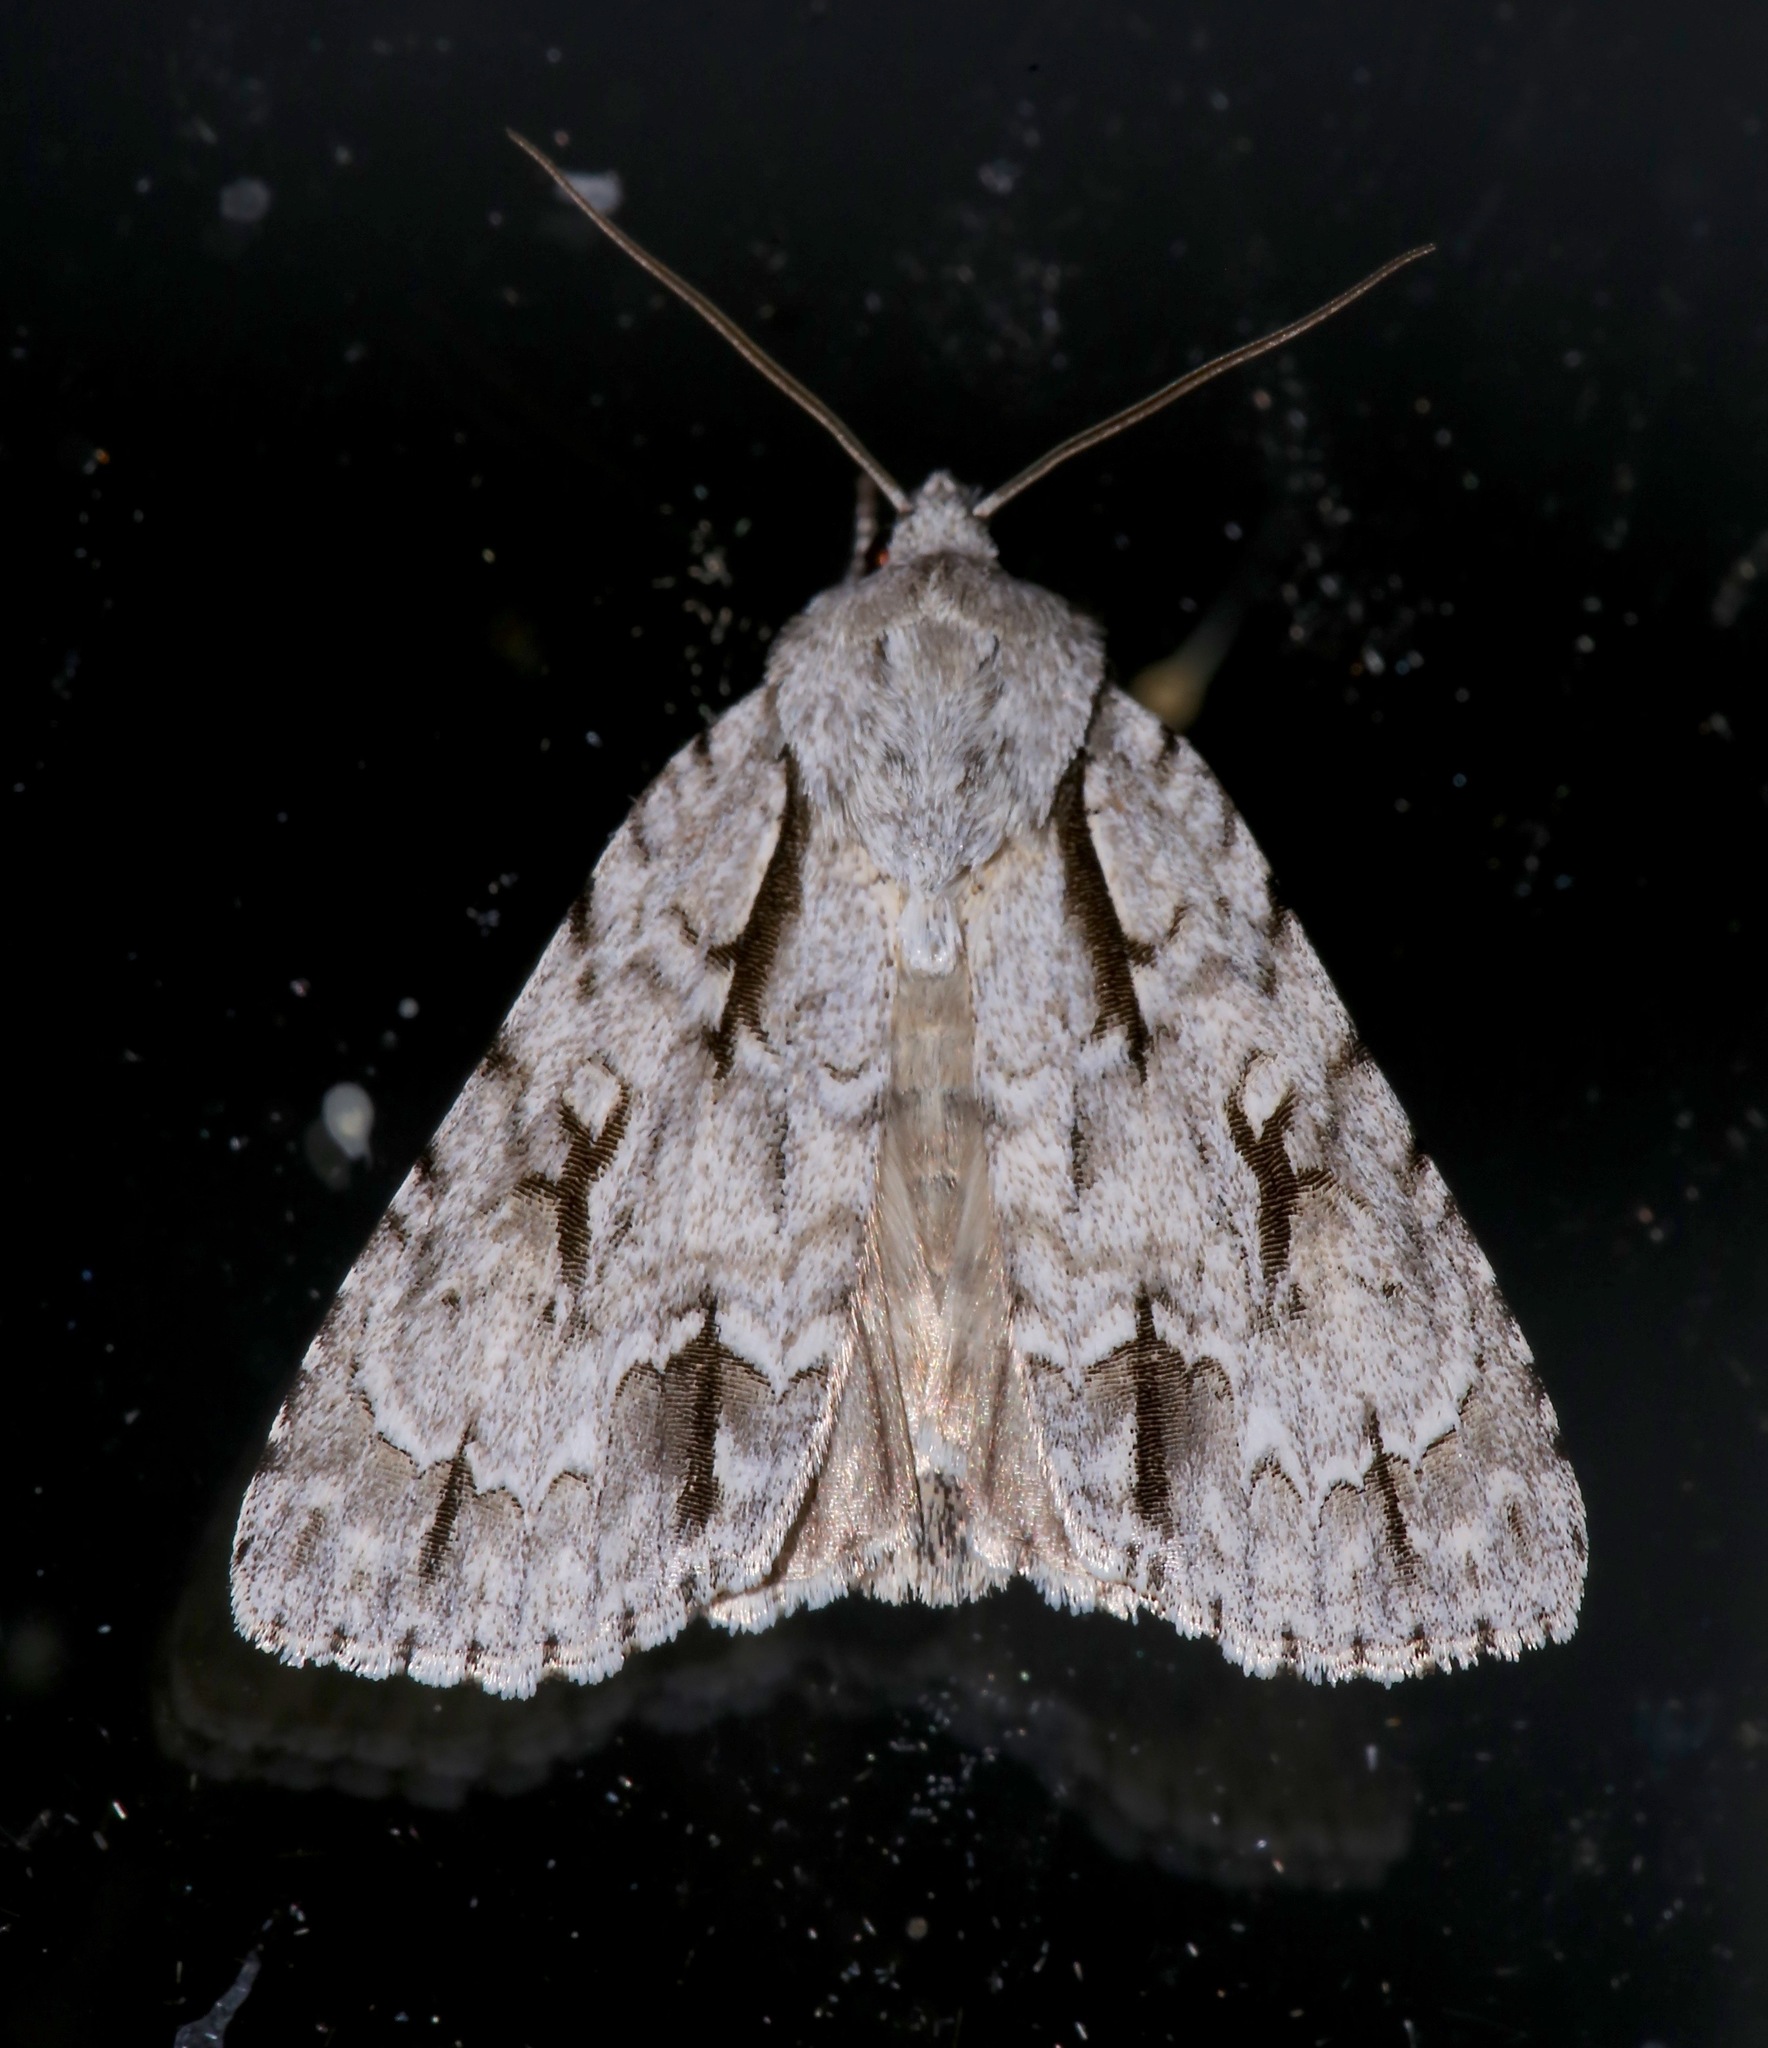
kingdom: Animalia
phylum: Arthropoda
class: Insecta
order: Lepidoptera
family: Noctuidae
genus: Acronicta
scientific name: Acronicta hasta
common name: Cherry dagger
